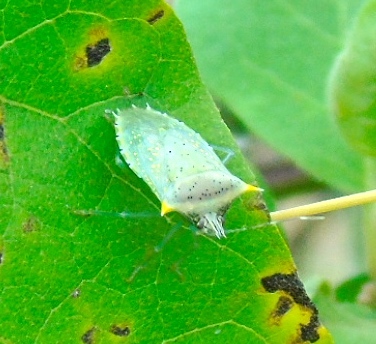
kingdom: Animalia
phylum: Arthropoda
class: Insecta
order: Hemiptera
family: Pentatomidae
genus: Arvelius
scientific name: Arvelius
